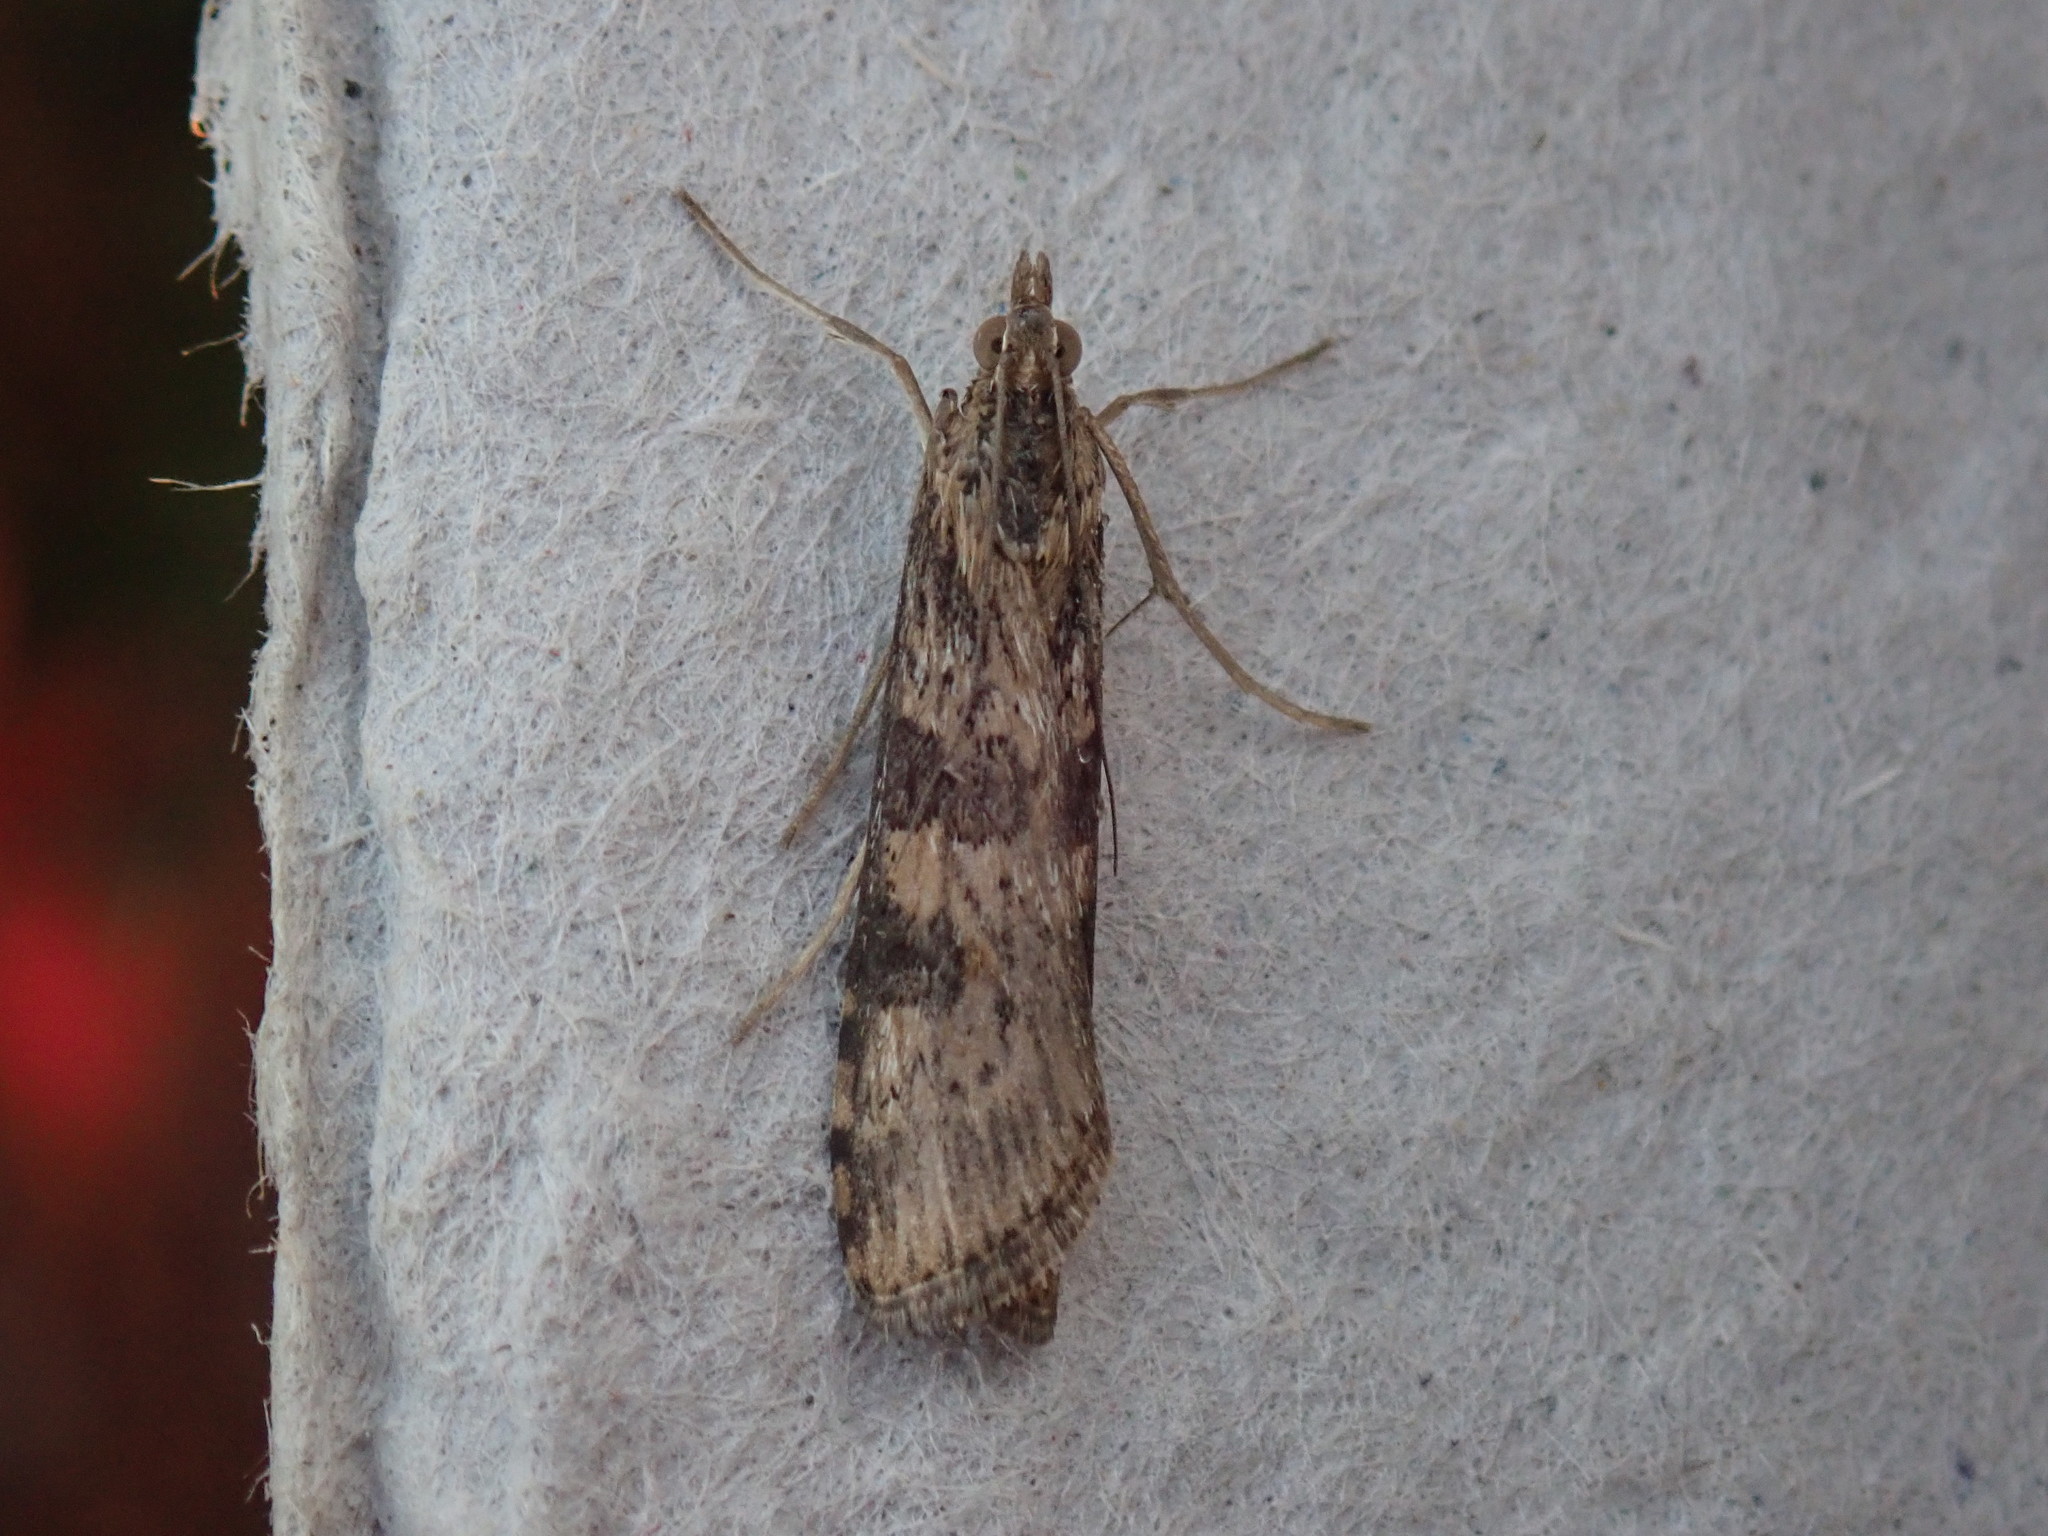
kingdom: Animalia
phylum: Arthropoda
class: Insecta
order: Lepidoptera
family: Crambidae
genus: Nomophila
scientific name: Nomophila nearctica
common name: American rush veneer
